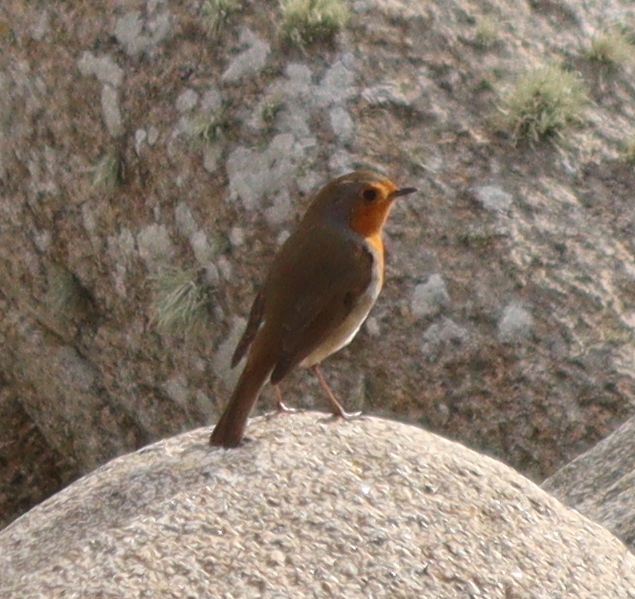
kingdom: Animalia
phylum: Chordata
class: Aves
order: Passeriformes
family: Muscicapidae
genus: Erithacus
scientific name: Erithacus rubecula
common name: European robin
